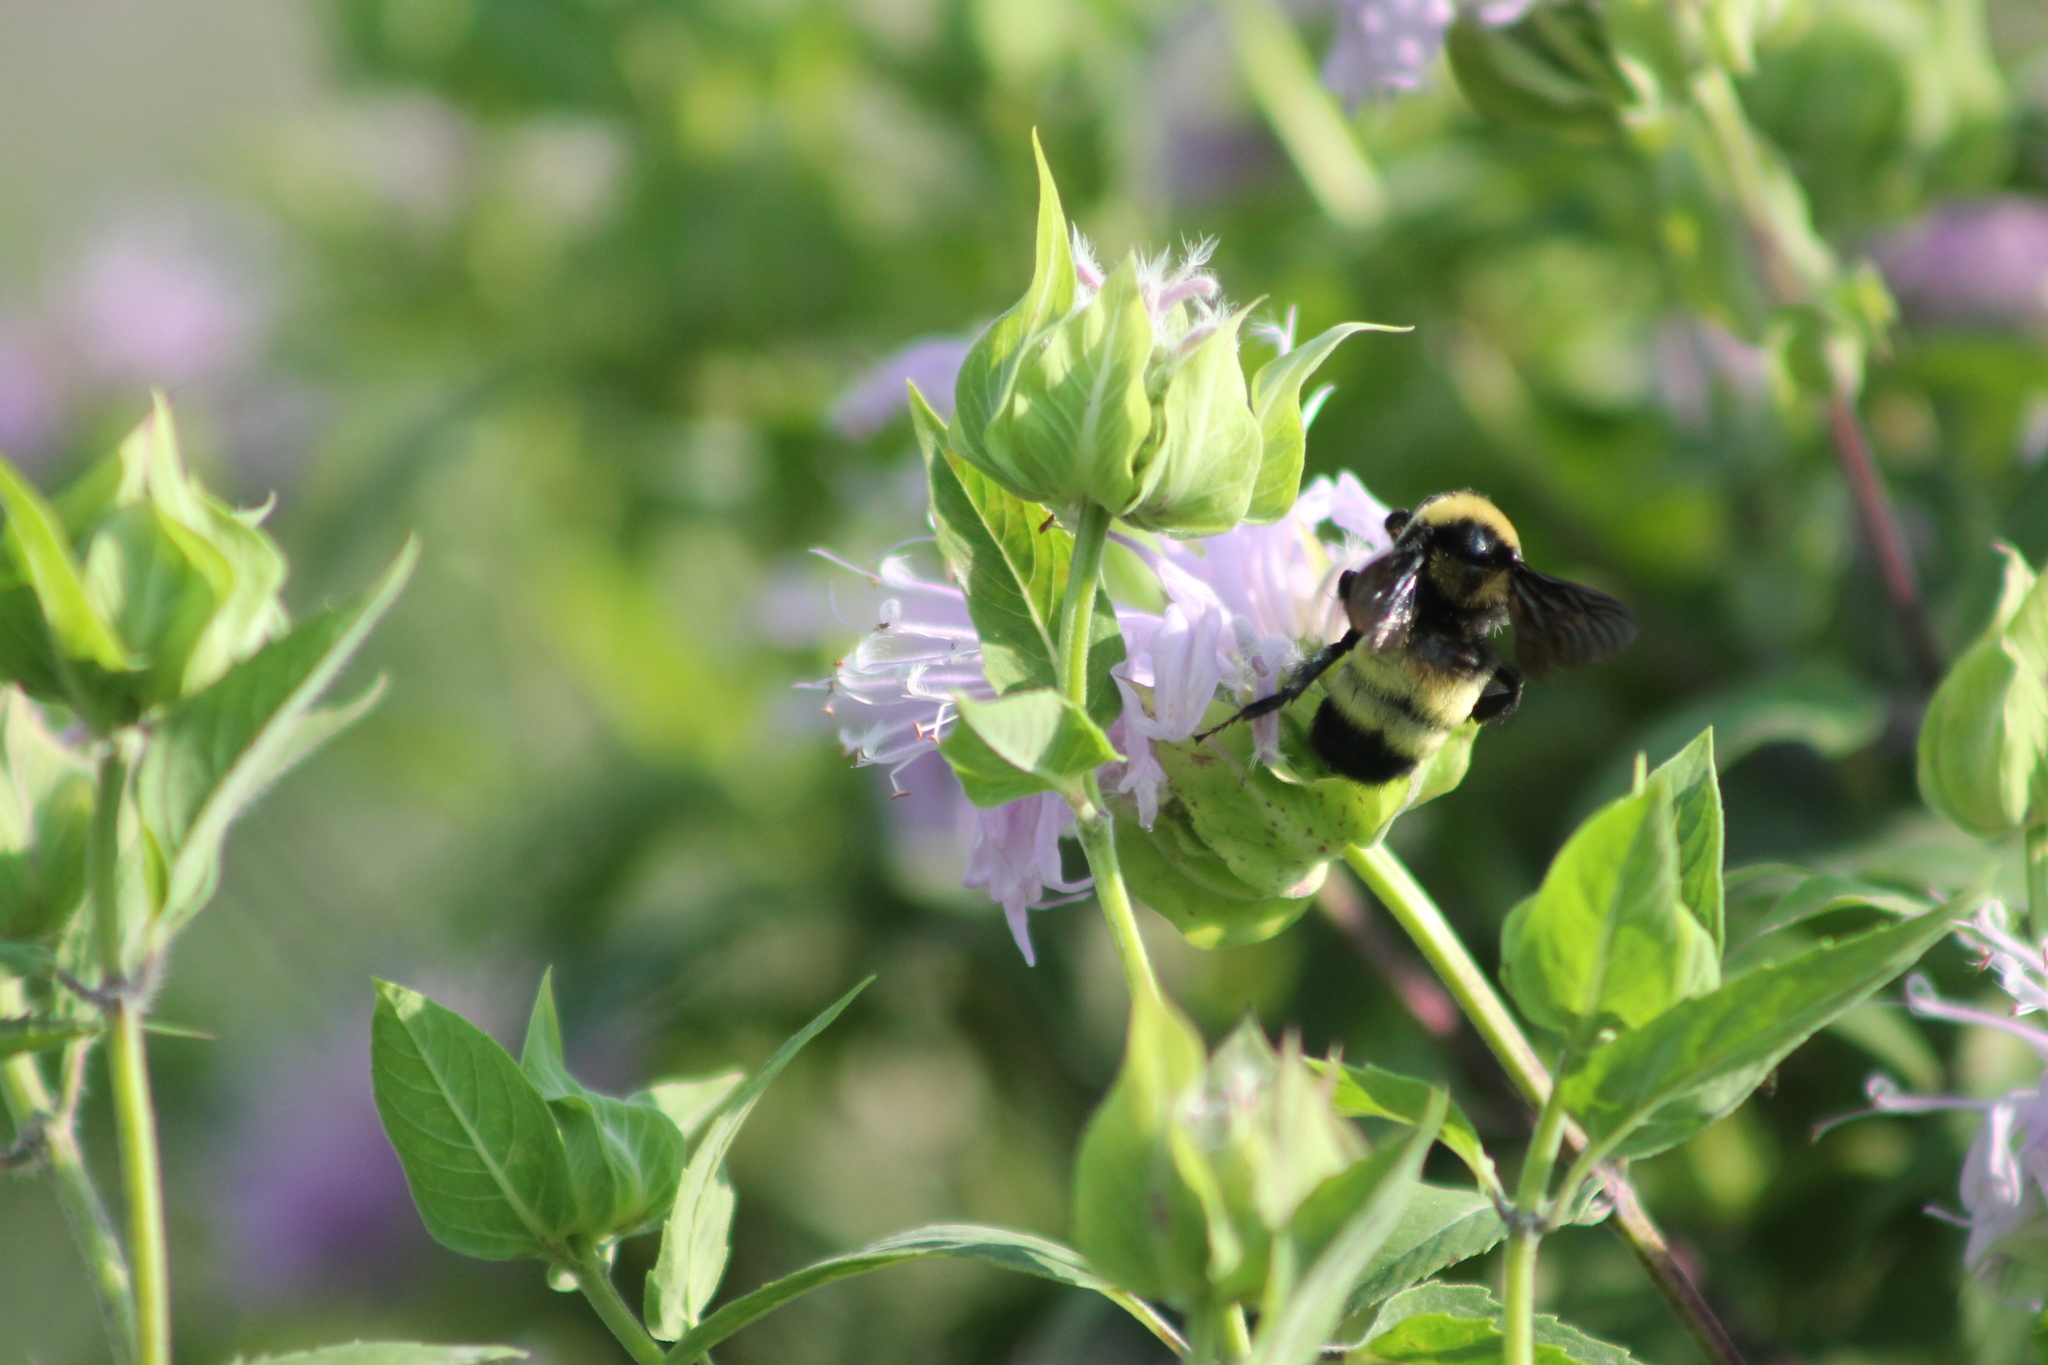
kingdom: Animalia
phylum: Arthropoda
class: Insecta
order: Hymenoptera
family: Apidae
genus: Bombus
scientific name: Bombus auricomus
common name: Black and gold bumble bee
